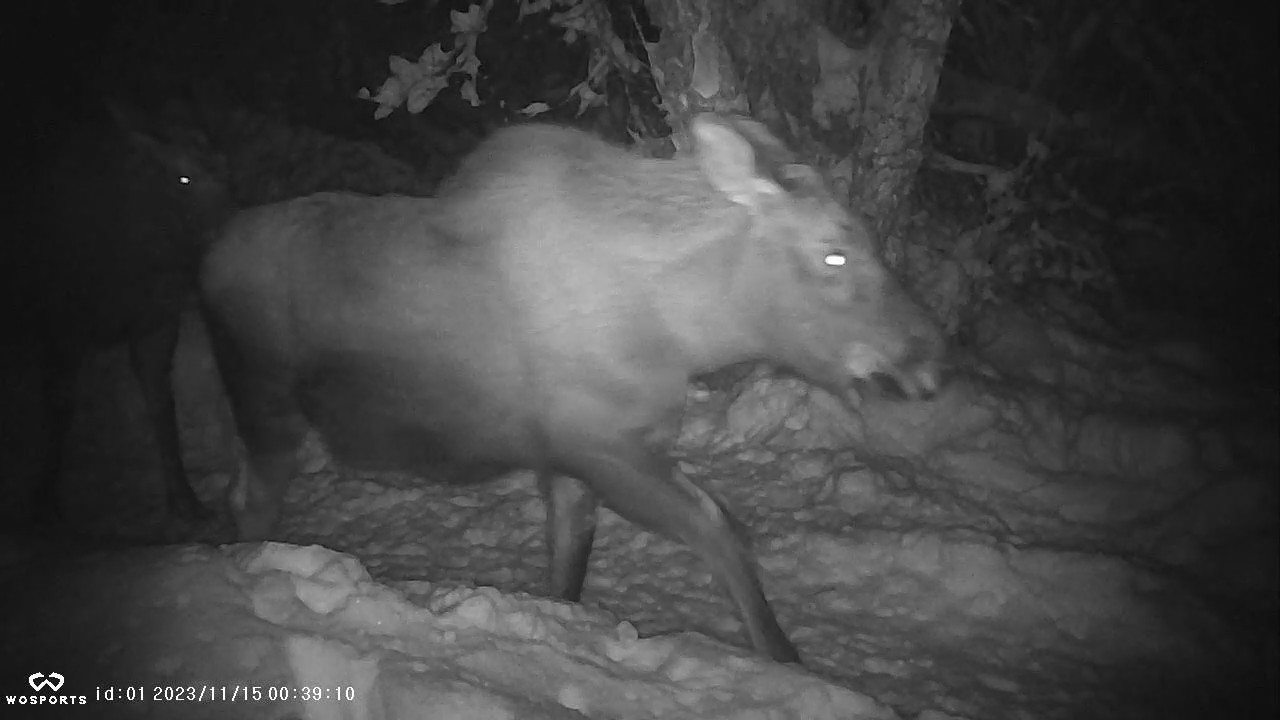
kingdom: Animalia
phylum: Chordata
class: Mammalia
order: Artiodactyla
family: Cervidae
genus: Alces
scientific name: Alces alces
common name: Moose
